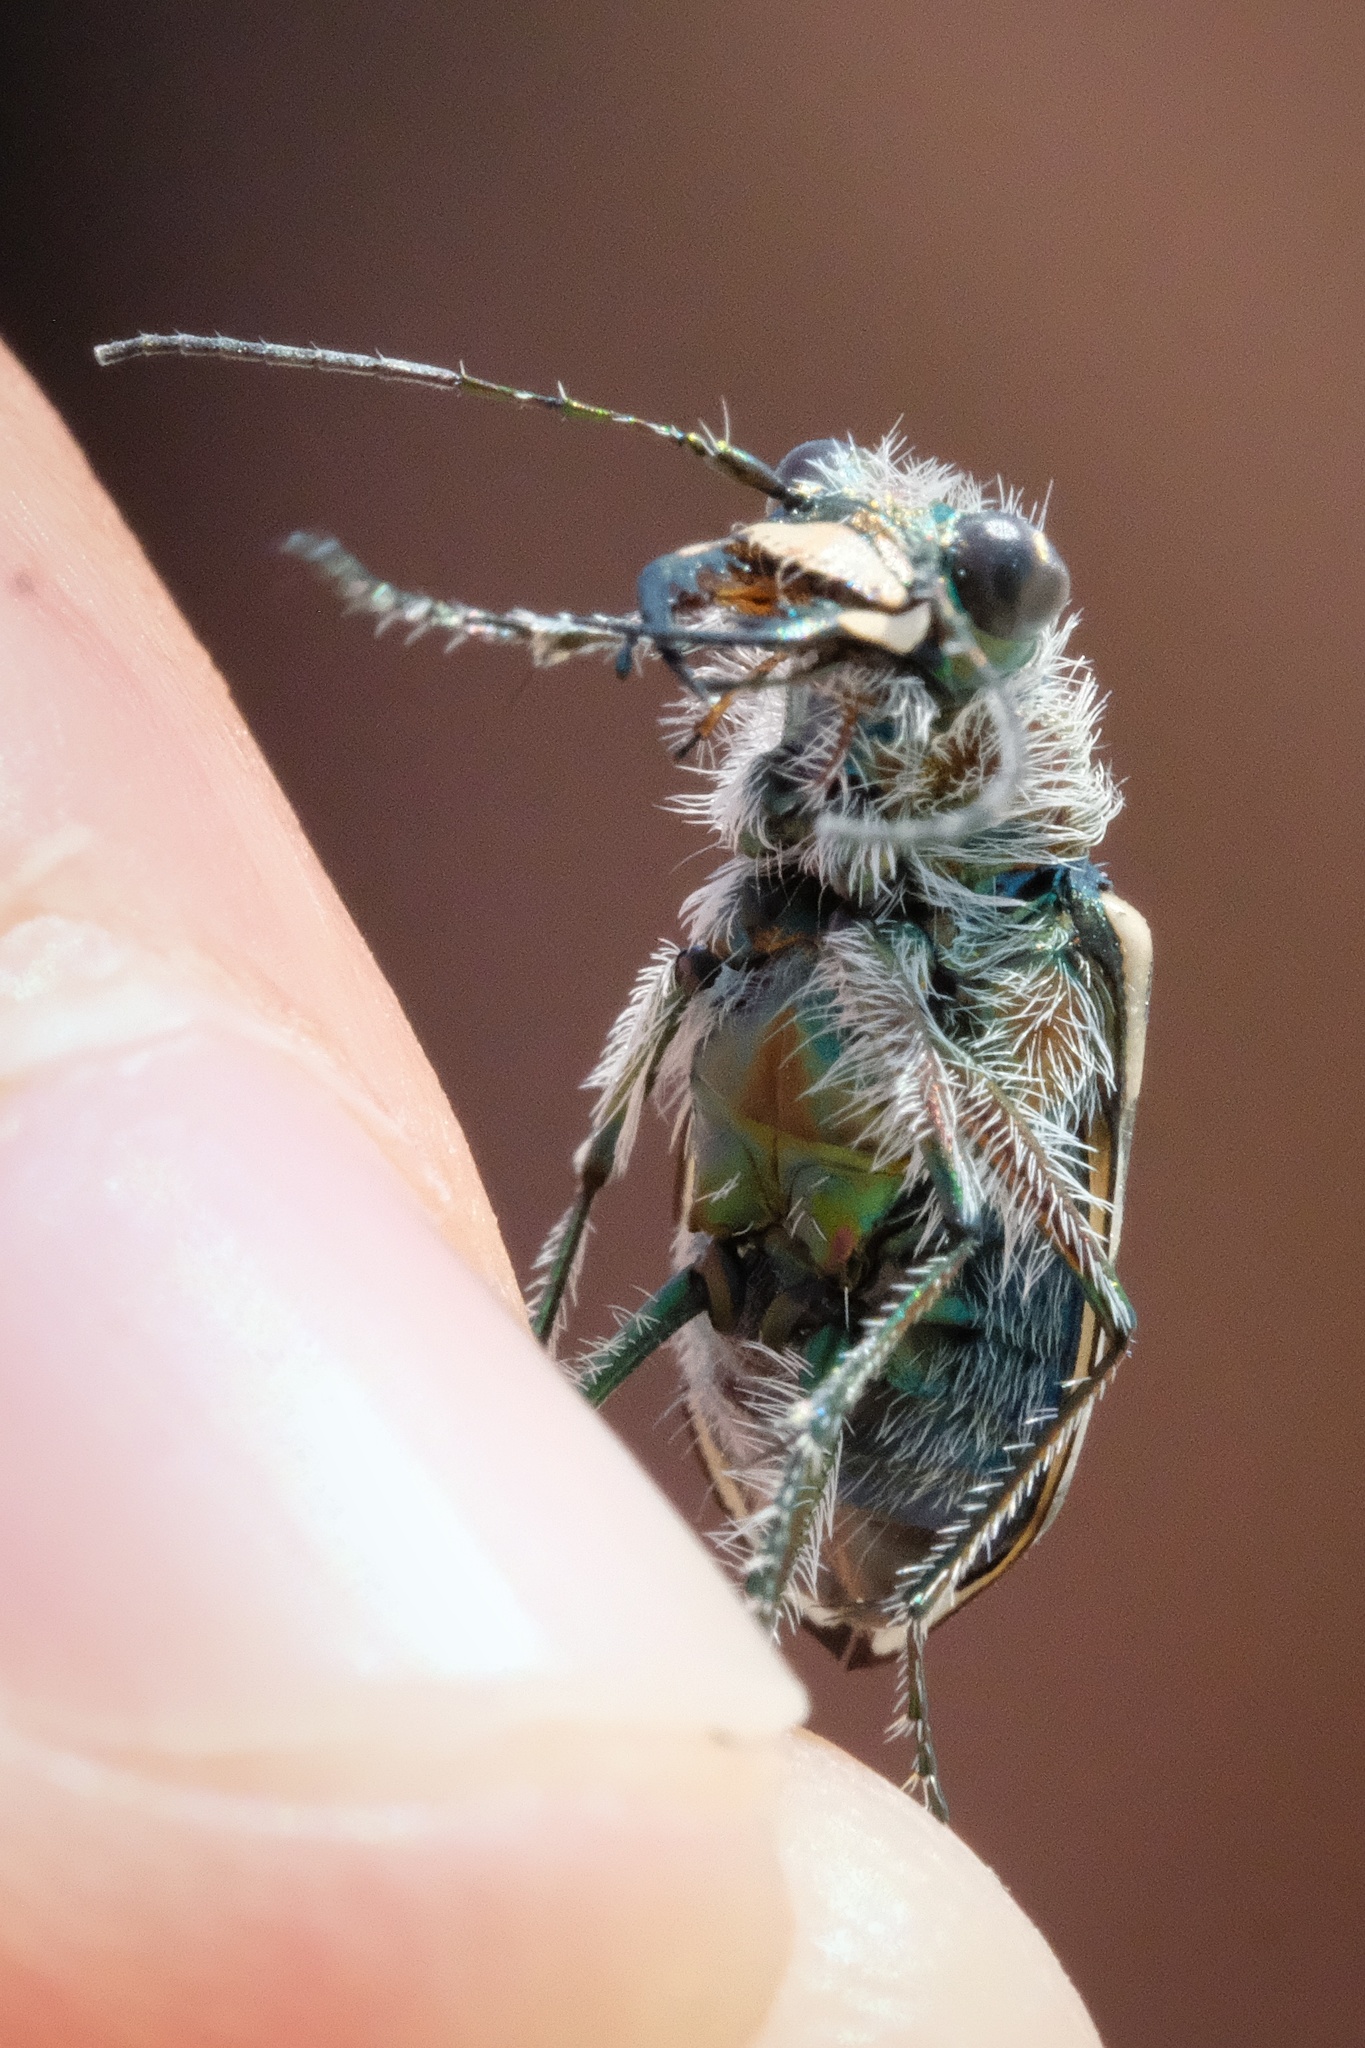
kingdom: Animalia
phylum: Arthropoda
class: Insecta
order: Coleoptera
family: Carabidae
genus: Cicindela
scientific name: Cicindela hirticollis
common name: Hairy-necked tiger beetle
